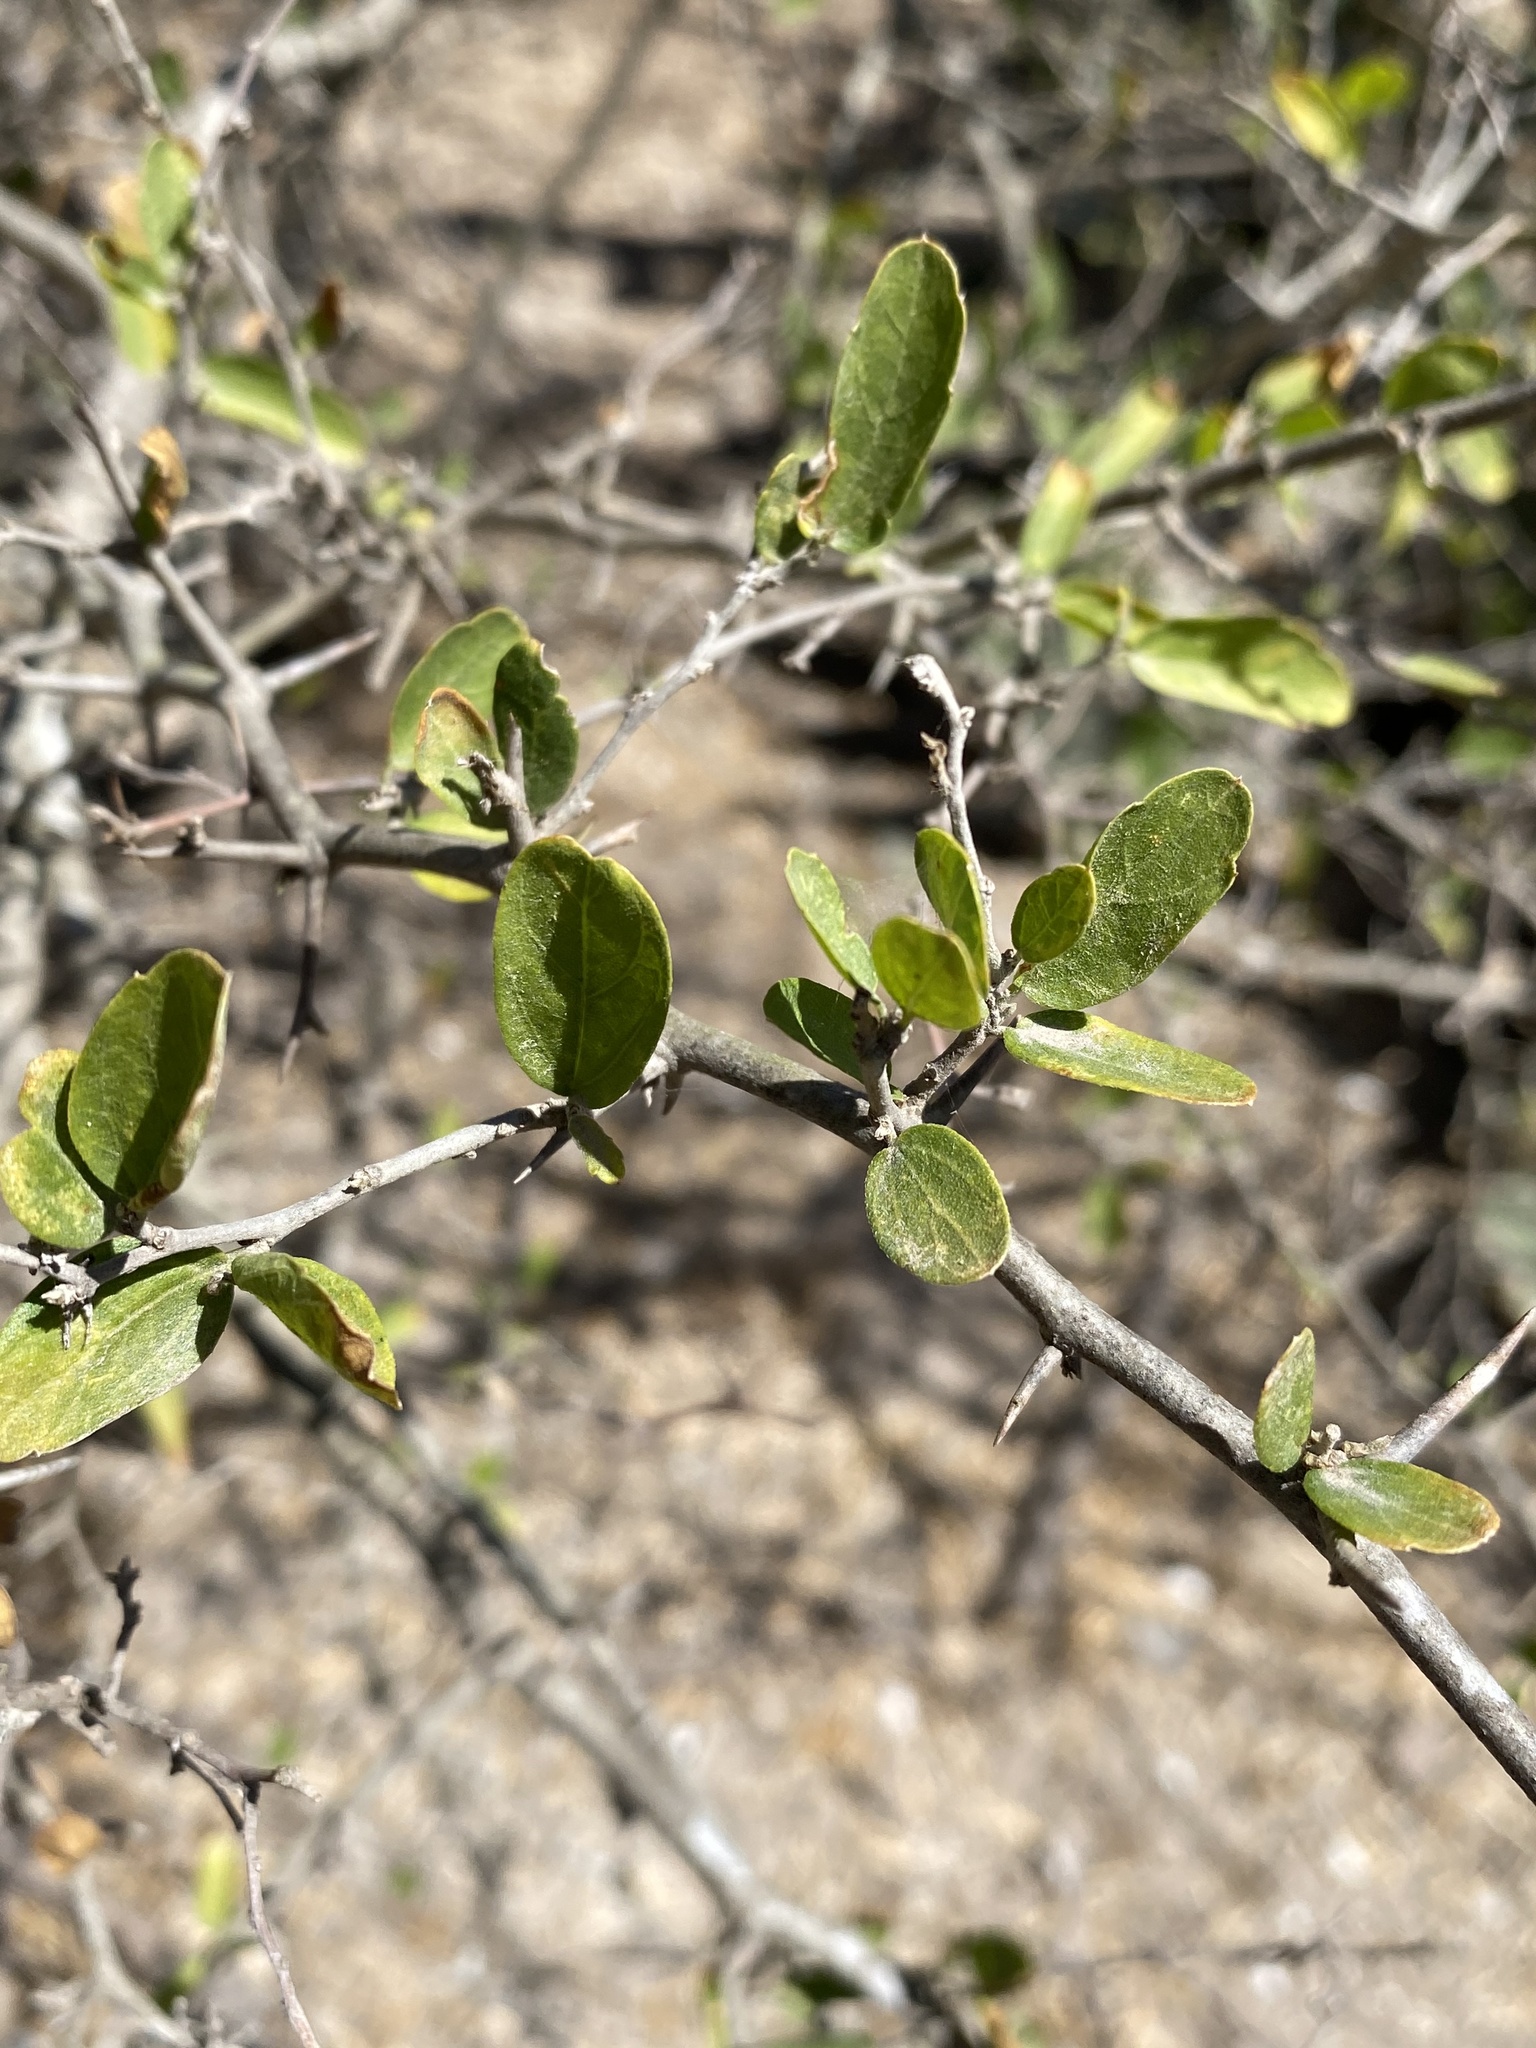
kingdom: Plantae
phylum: Tracheophyta
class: Magnoliopsida
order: Rosales
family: Cannabaceae
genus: Celtis
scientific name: Celtis pallida
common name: Desert hackberry
